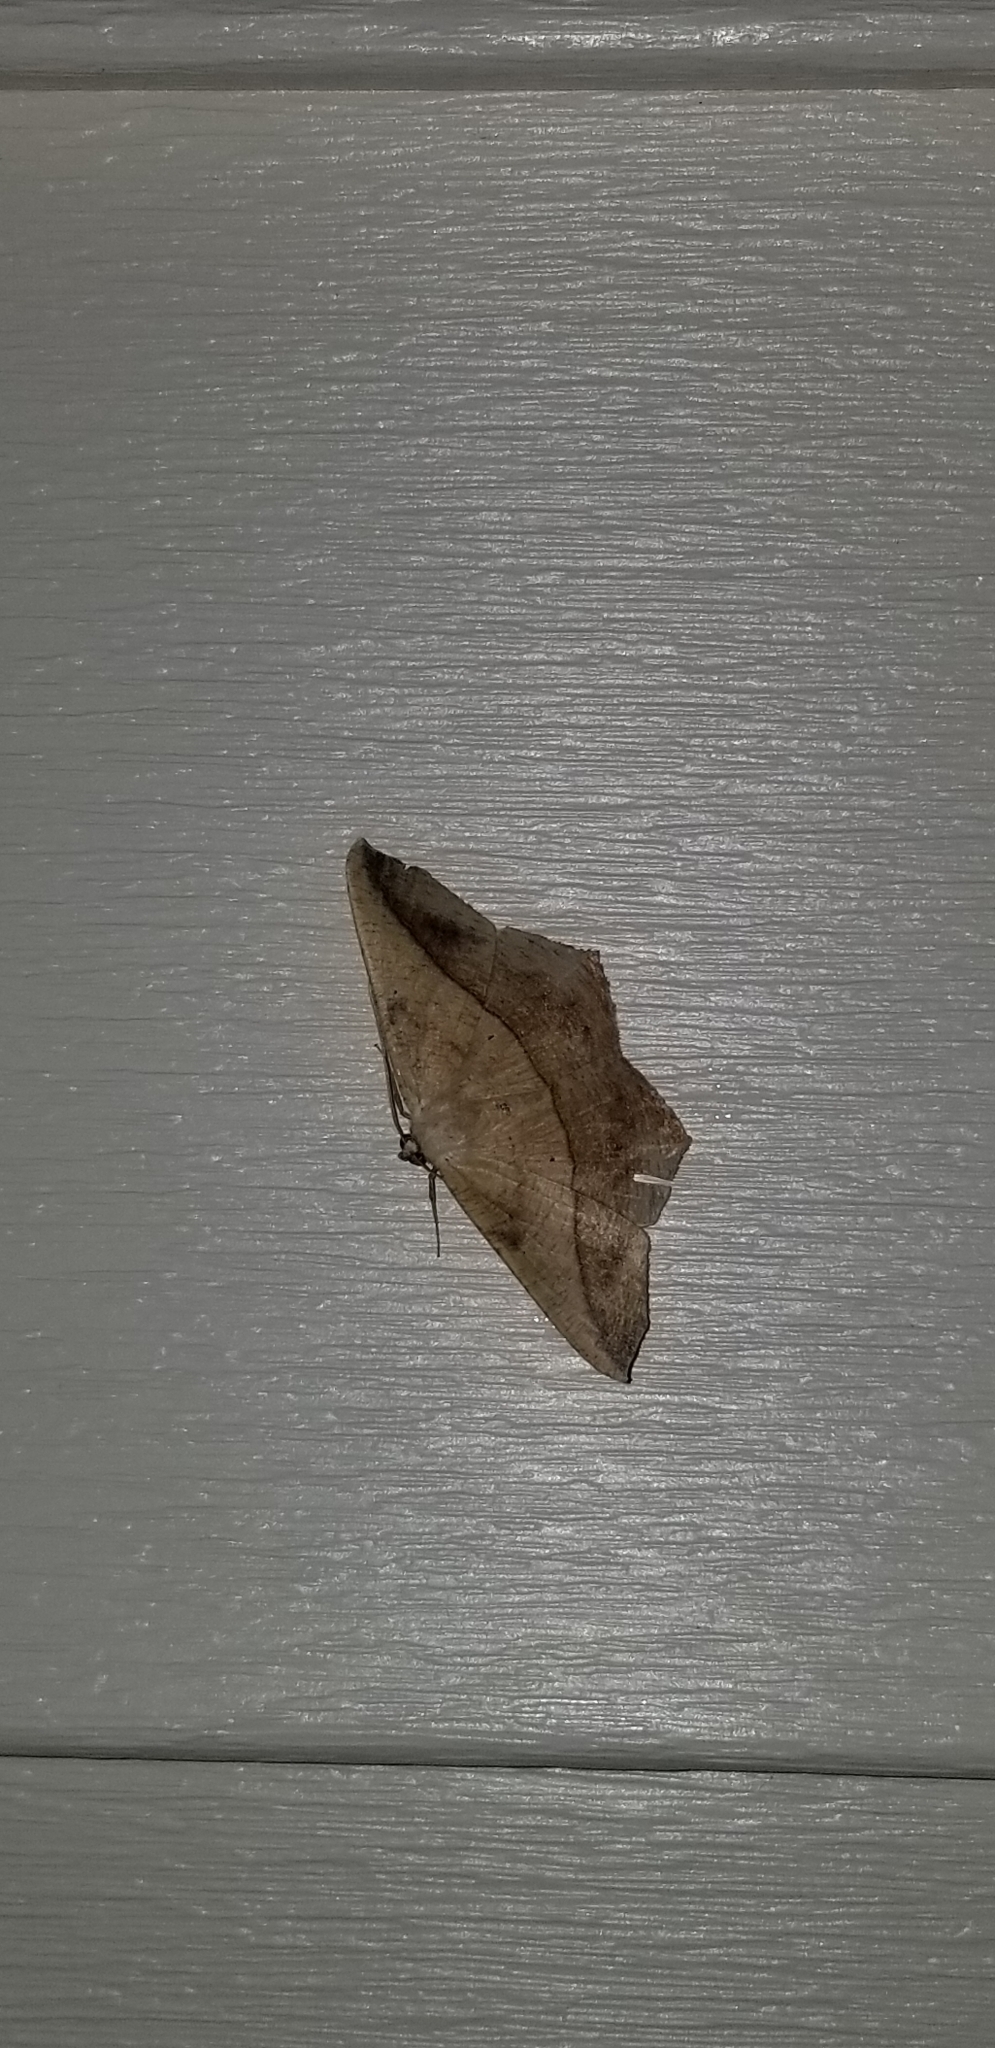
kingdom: Animalia
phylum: Arthropoda
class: Insecta
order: Lepidoptera
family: Geometridae
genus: Prochoerodes
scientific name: Prochoerodes lineola
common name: Large maple spanworm
